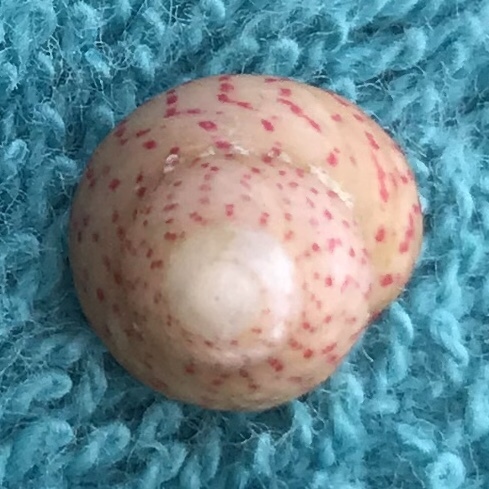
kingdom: Animalia
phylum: Mollusca
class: Gastropoda
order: Trochida
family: Trochidae
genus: Steromphala
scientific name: Steromphala divaricata
